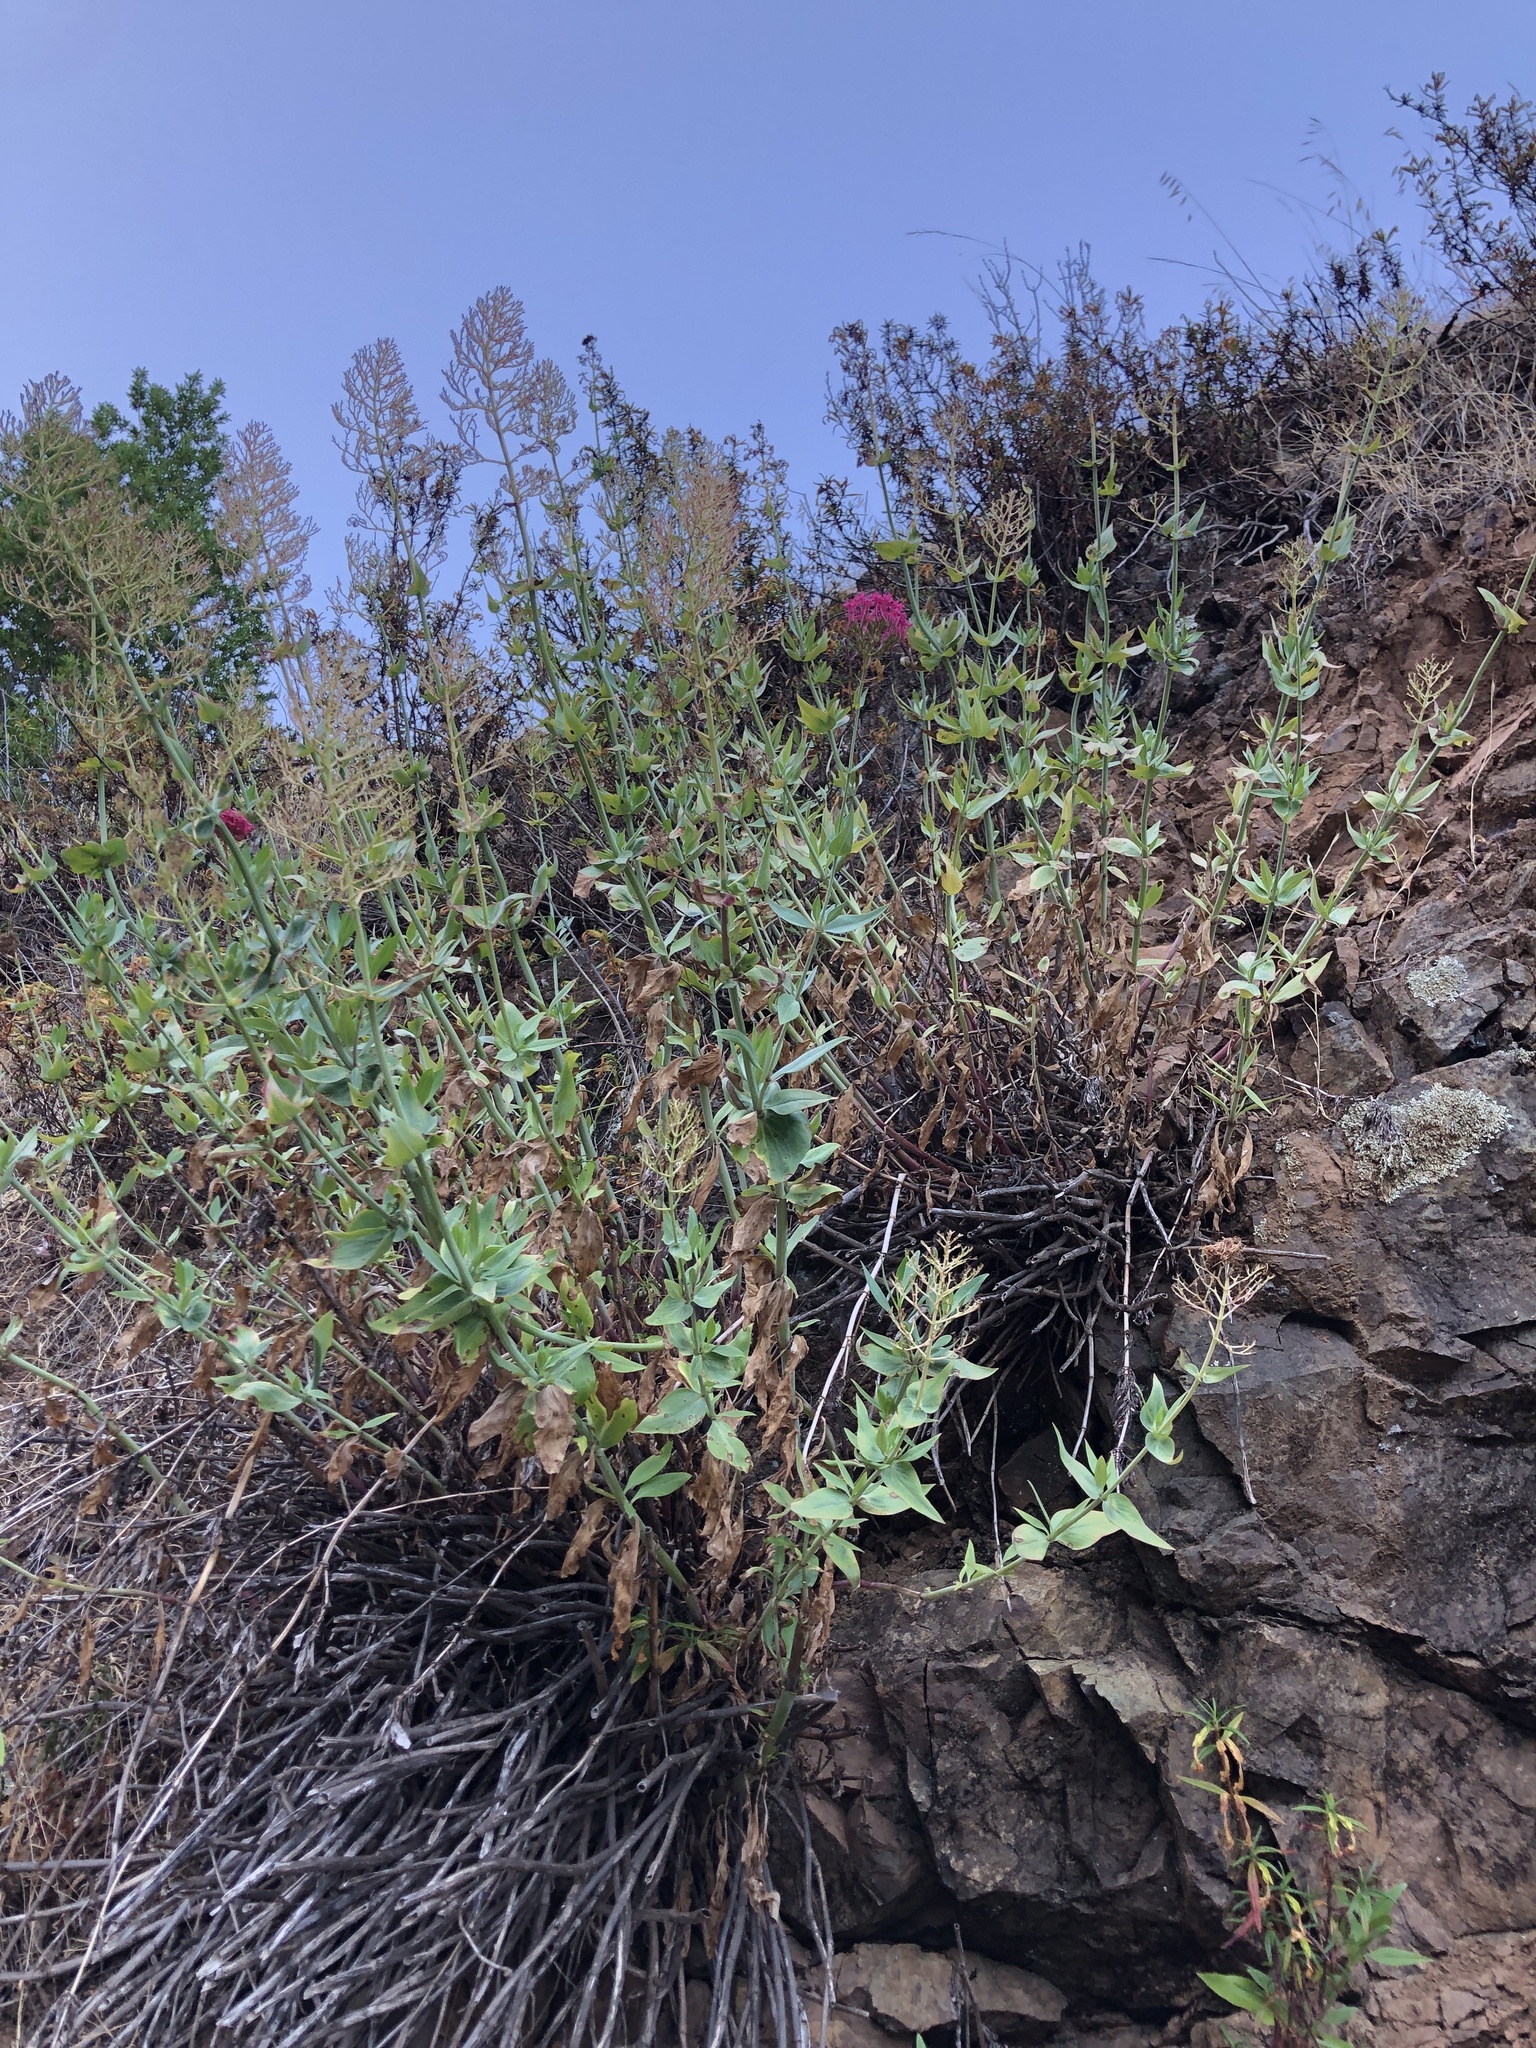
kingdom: Plantae
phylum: Tracheophyta
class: Magnoliopsida
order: Dipsacales
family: Caprifoliaceae
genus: Centranthus
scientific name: Centranthus ruber
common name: Red valerian
